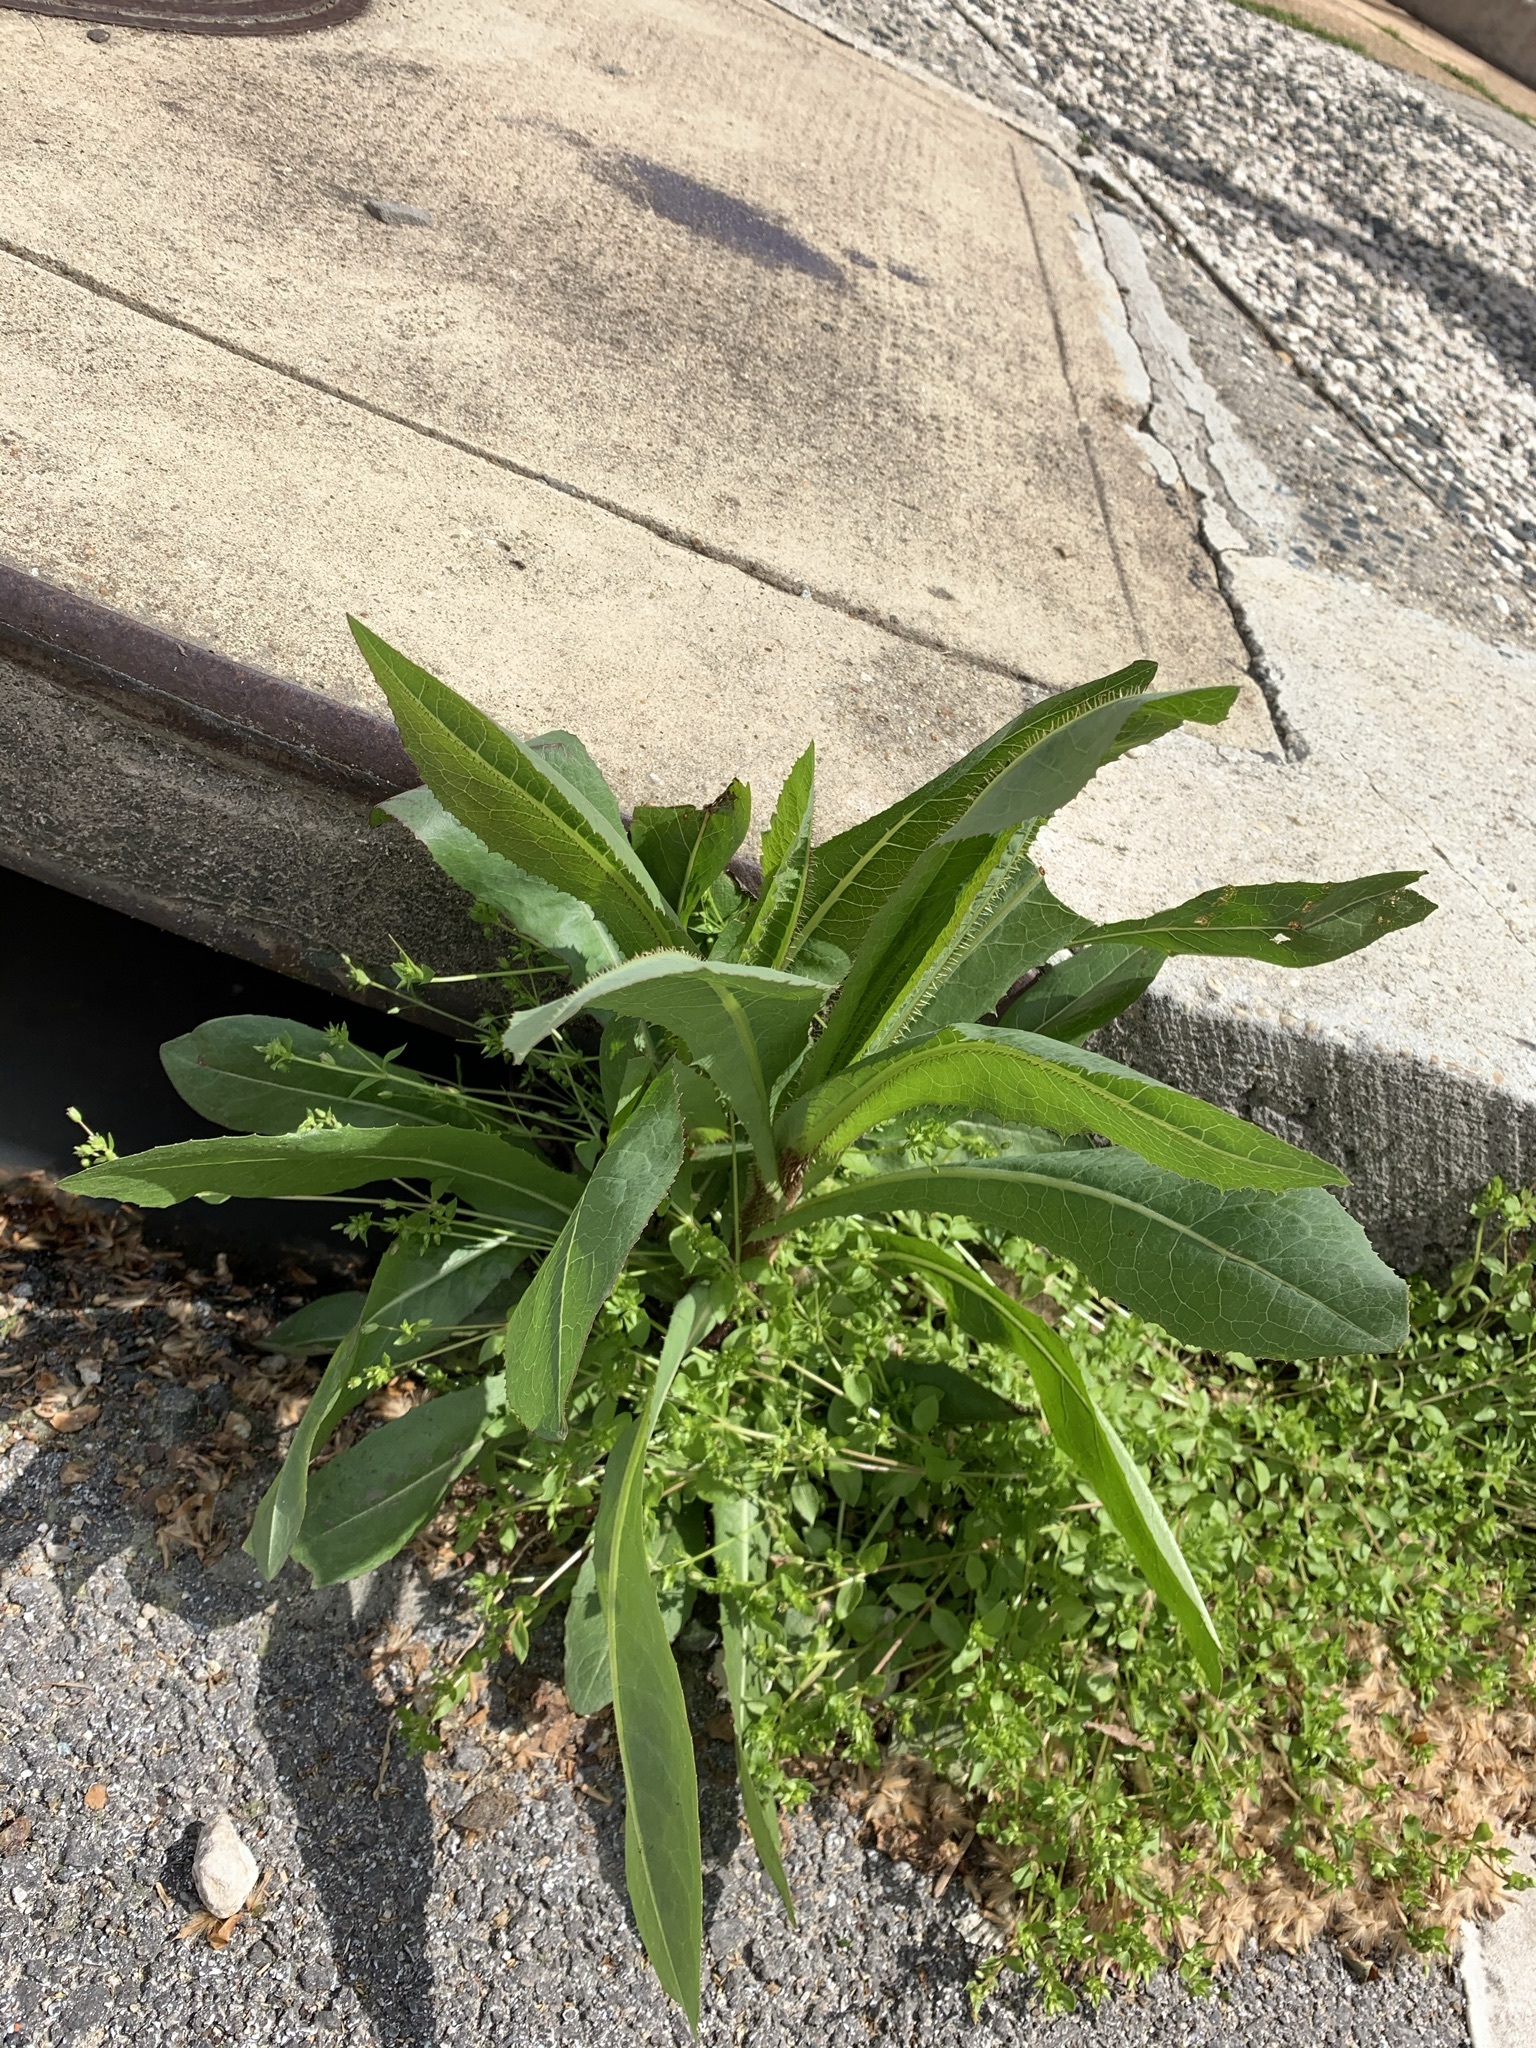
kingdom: Plantae
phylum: Tracheophyta
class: Magnoliopsida
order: Asterales
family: Asteraceae
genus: Lactuca
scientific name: Lactuca serriola
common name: Prickly lettuce
